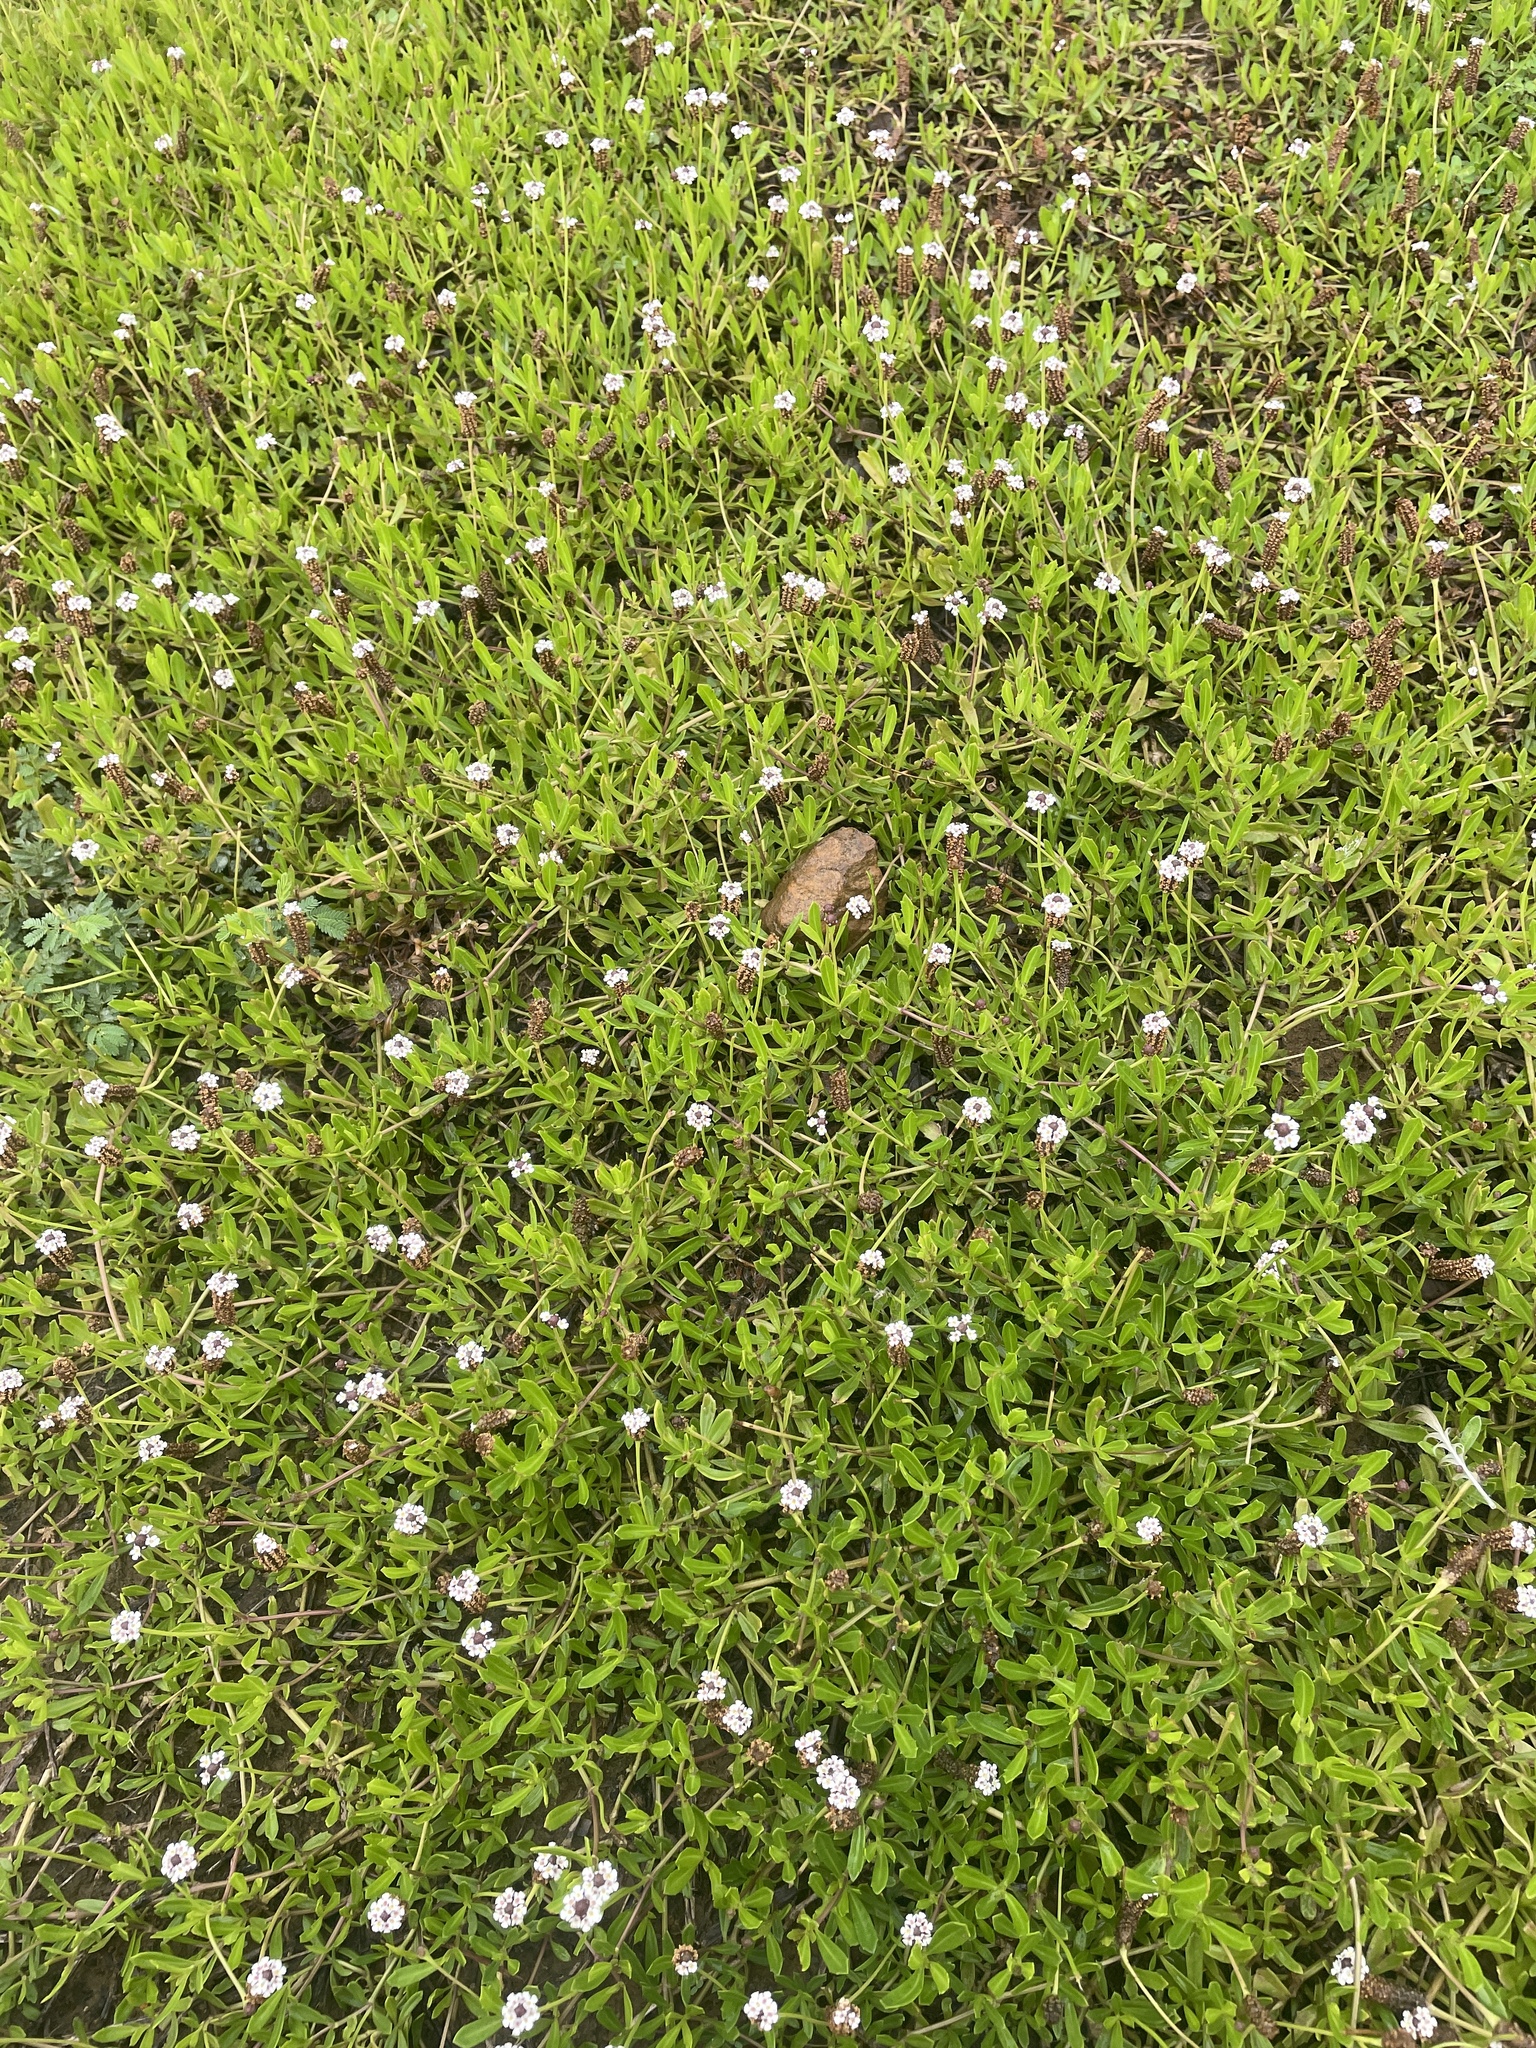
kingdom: Plantae
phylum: Tracheophyta
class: Magnoliopsida
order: Lamiales
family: Verbenaceae
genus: Phyla
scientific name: Phyla nodiflora
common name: Frogfruit
